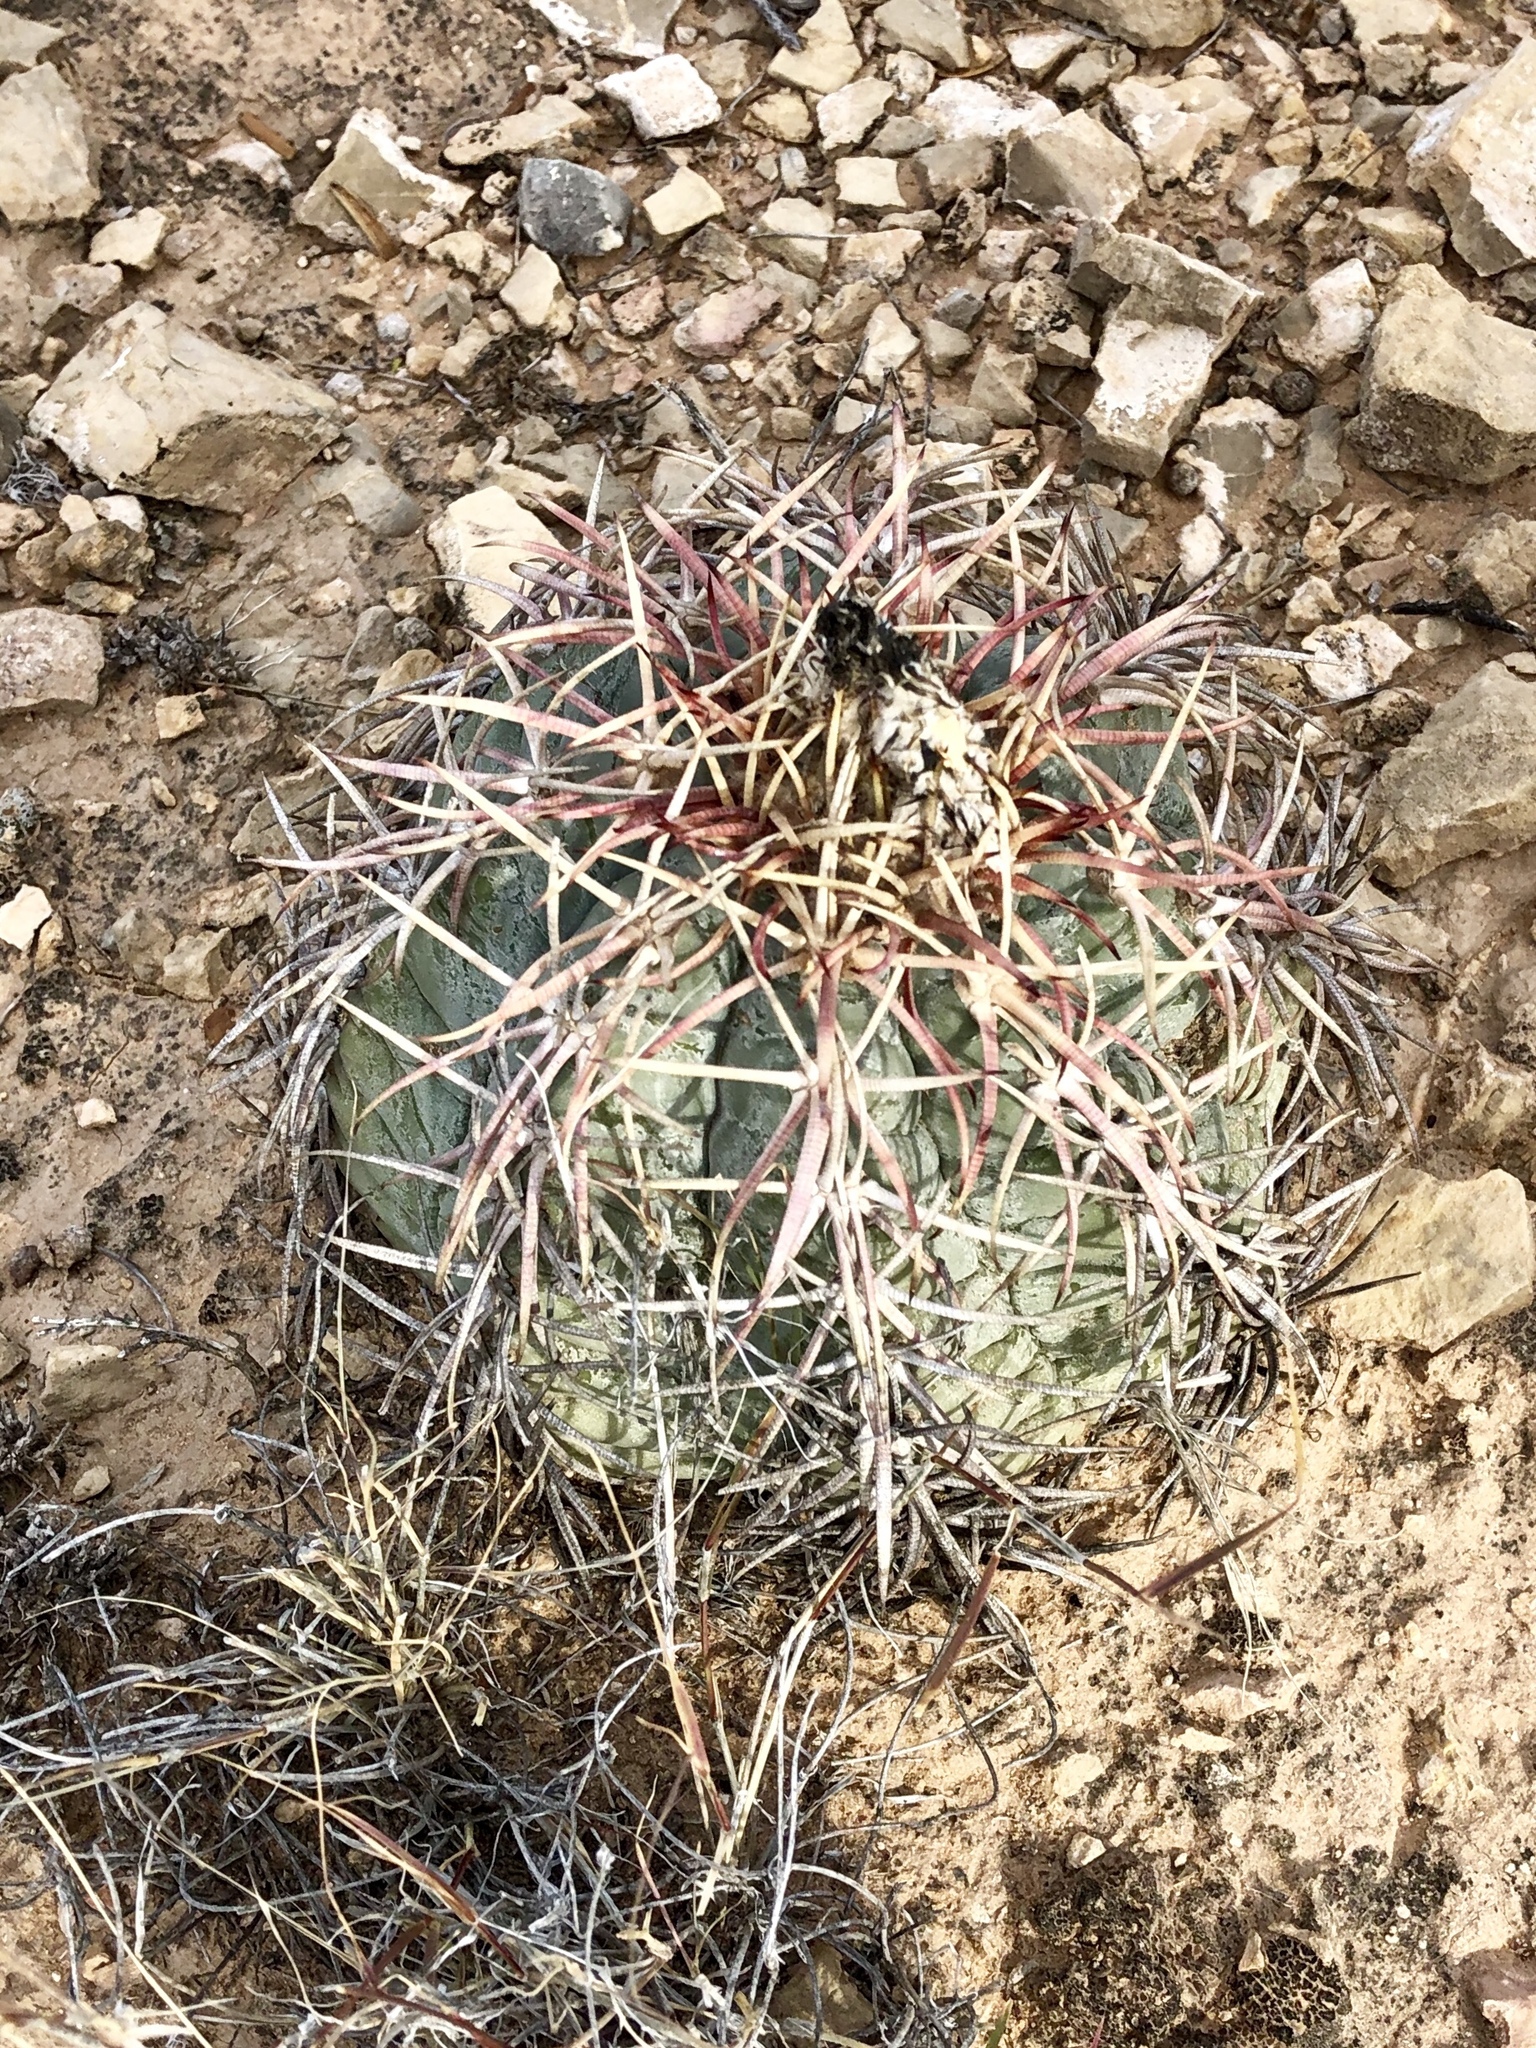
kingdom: Plantae
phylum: Tracheophyta
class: Magnoliopsida
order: Caryophyllales
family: Cactaceae
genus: Echinocactus
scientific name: Echinocactus horizonthalonius
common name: Devilshead
